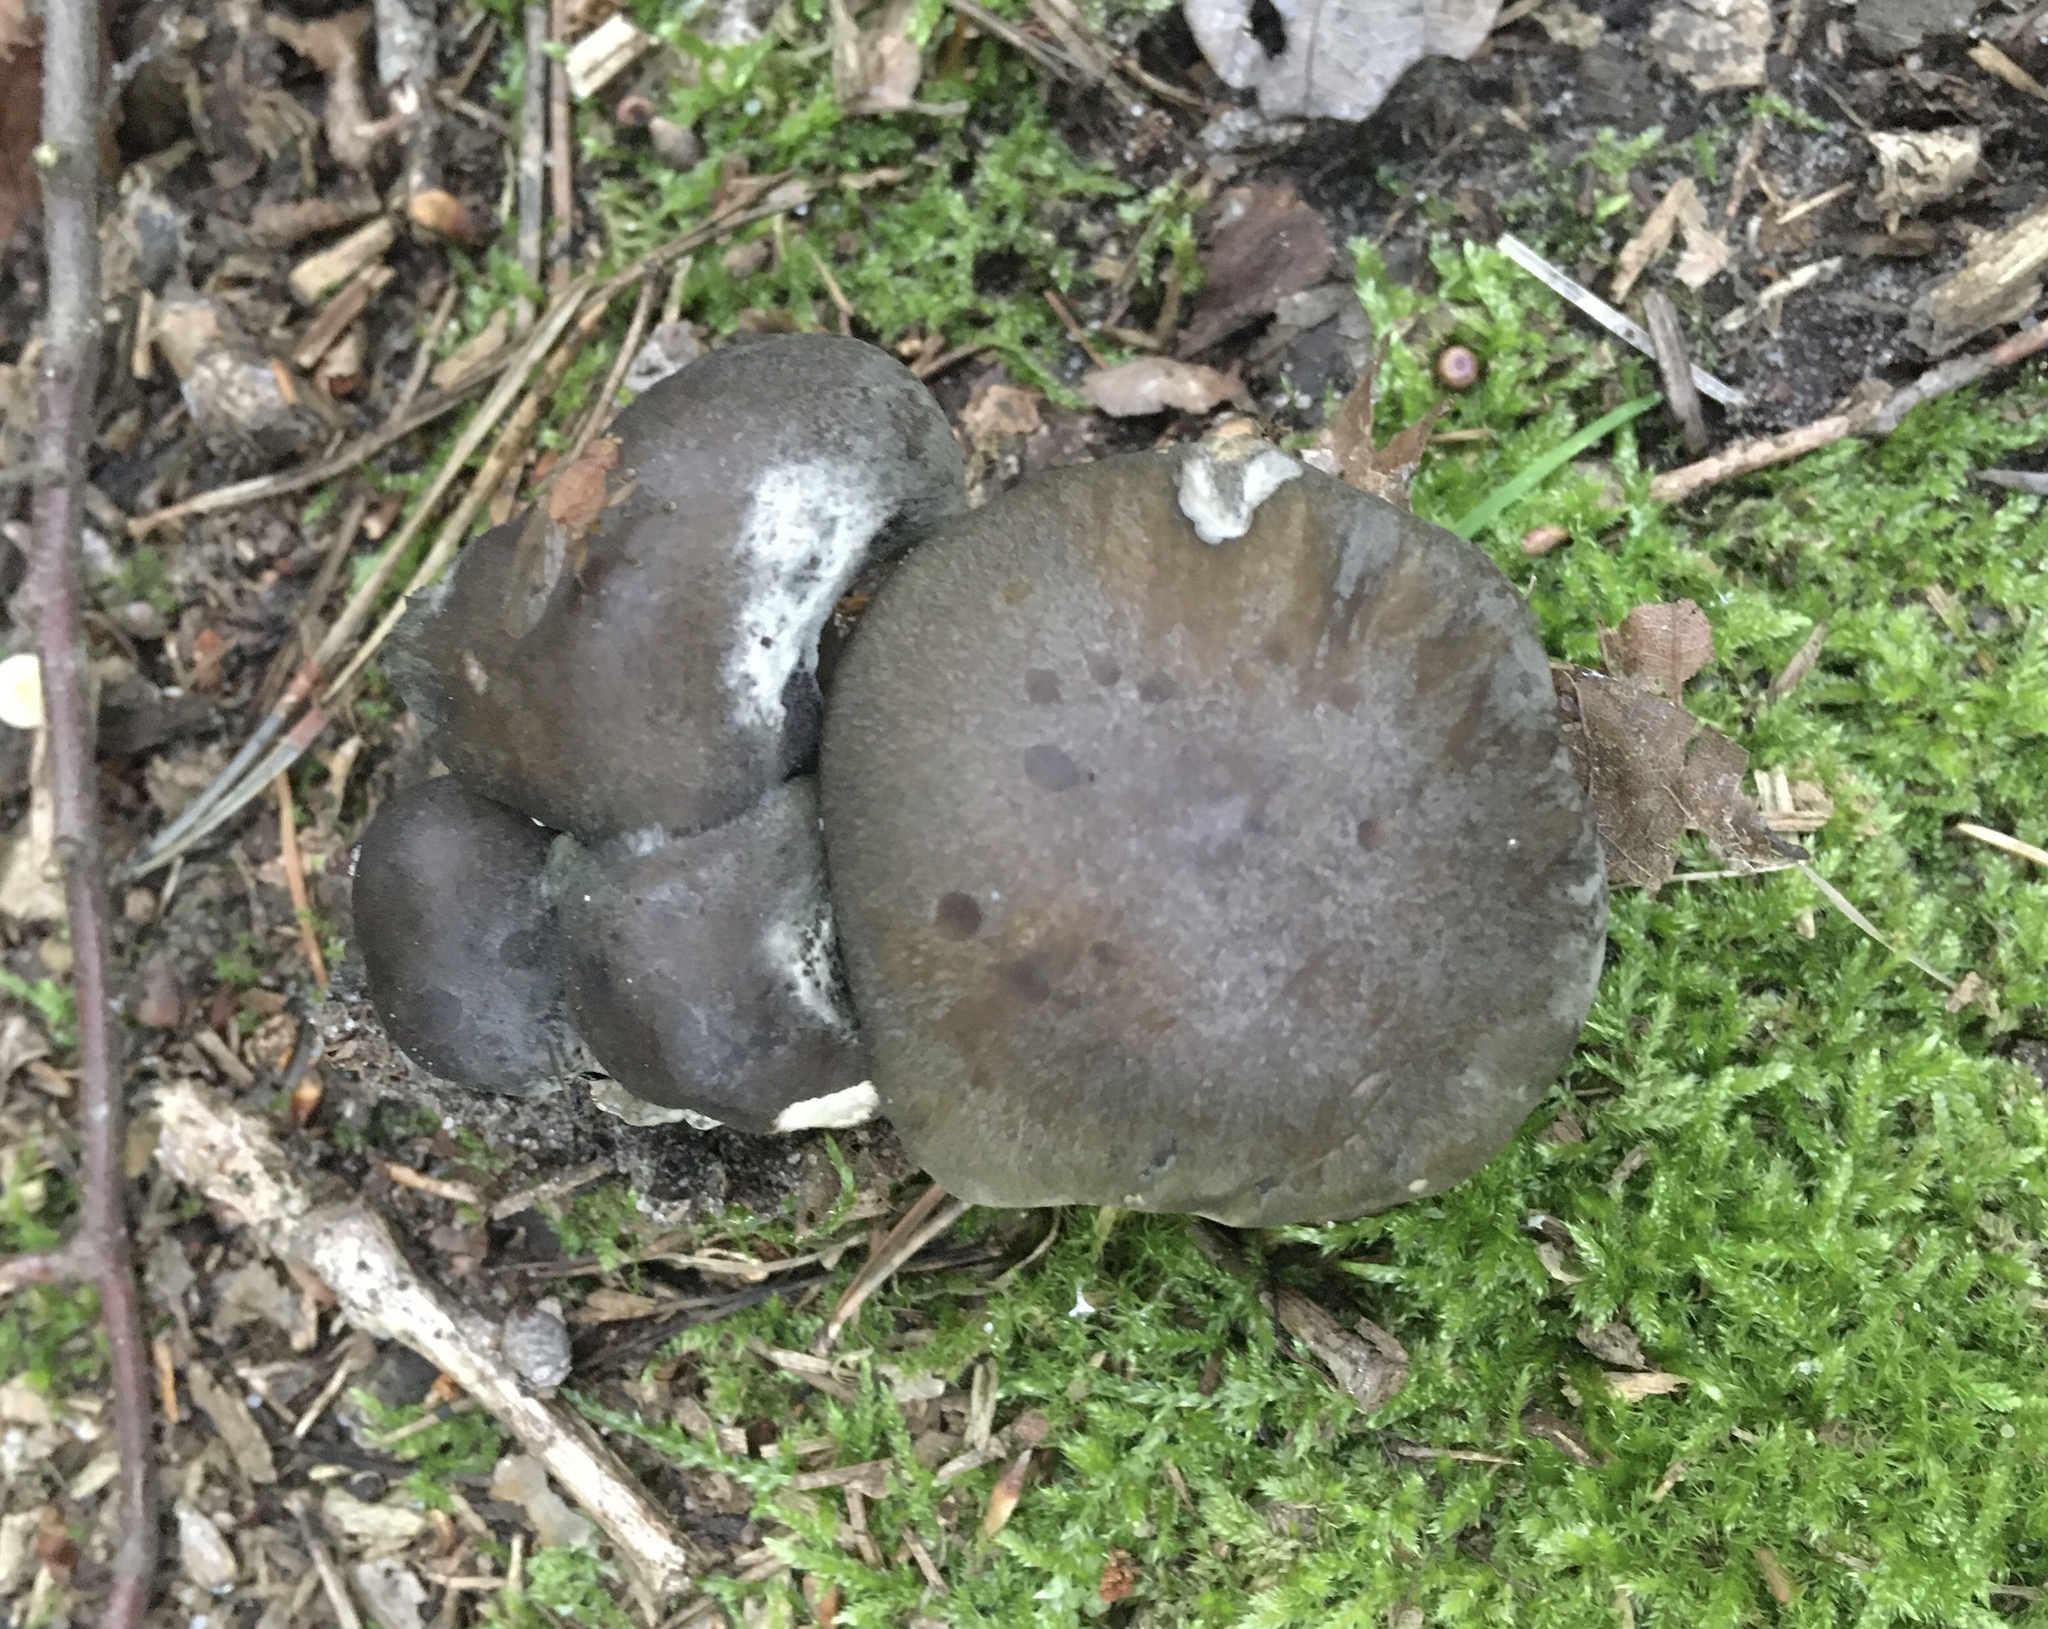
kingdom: Fungi
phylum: Basidiomycota
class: Agaricomycetes
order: Agaricales
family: Tricholomataceae
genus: Tricholoma
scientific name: Tricholoma saponaceum
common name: Soapy trich
